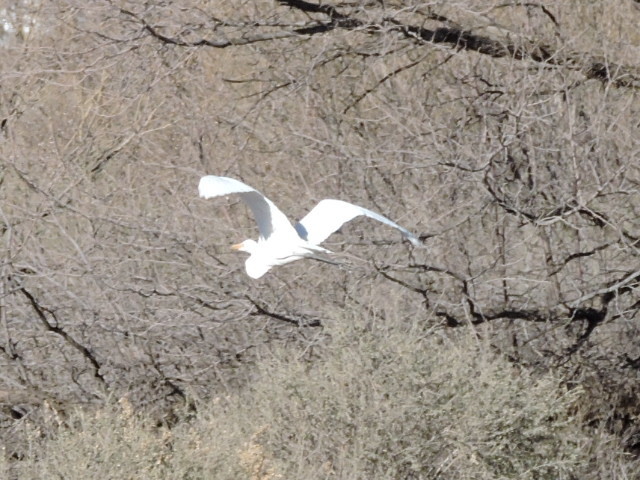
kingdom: Animalia
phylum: Chordata
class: Aves
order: Pelecaniformes
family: Ardeidae
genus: Ardea
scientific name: Ardea alba
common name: Great egret
